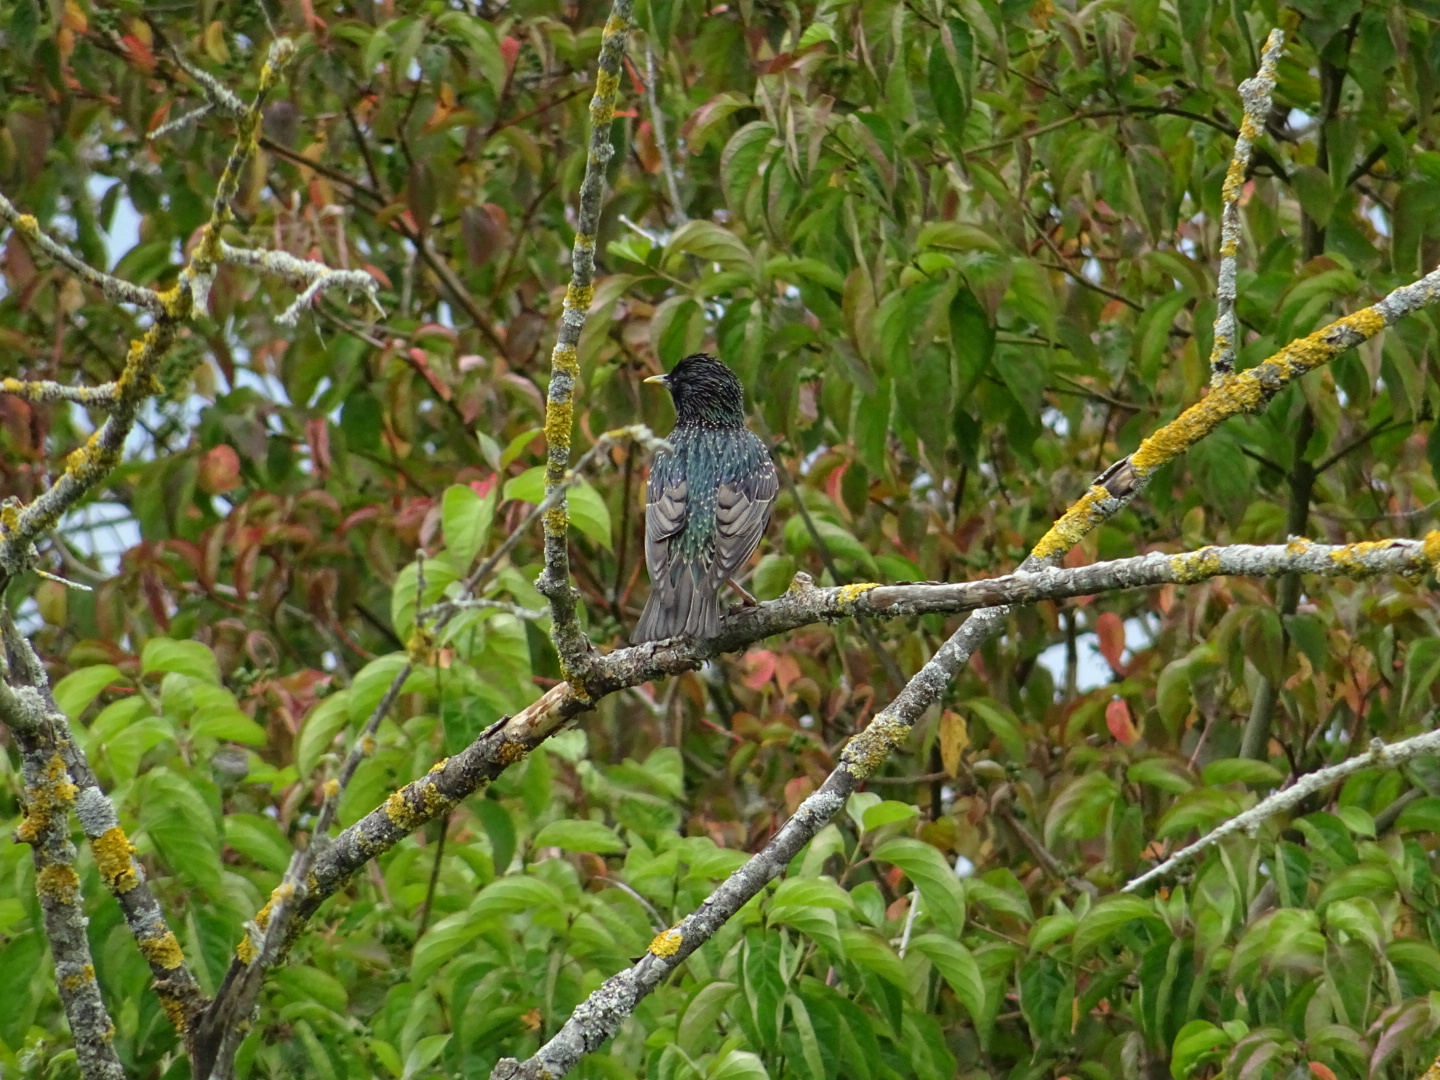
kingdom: Animalia
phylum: Chordata
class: Aves
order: Passeriformes
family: Sturnidae
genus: Sturnus
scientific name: Sturnus vulgaris
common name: Common starling
